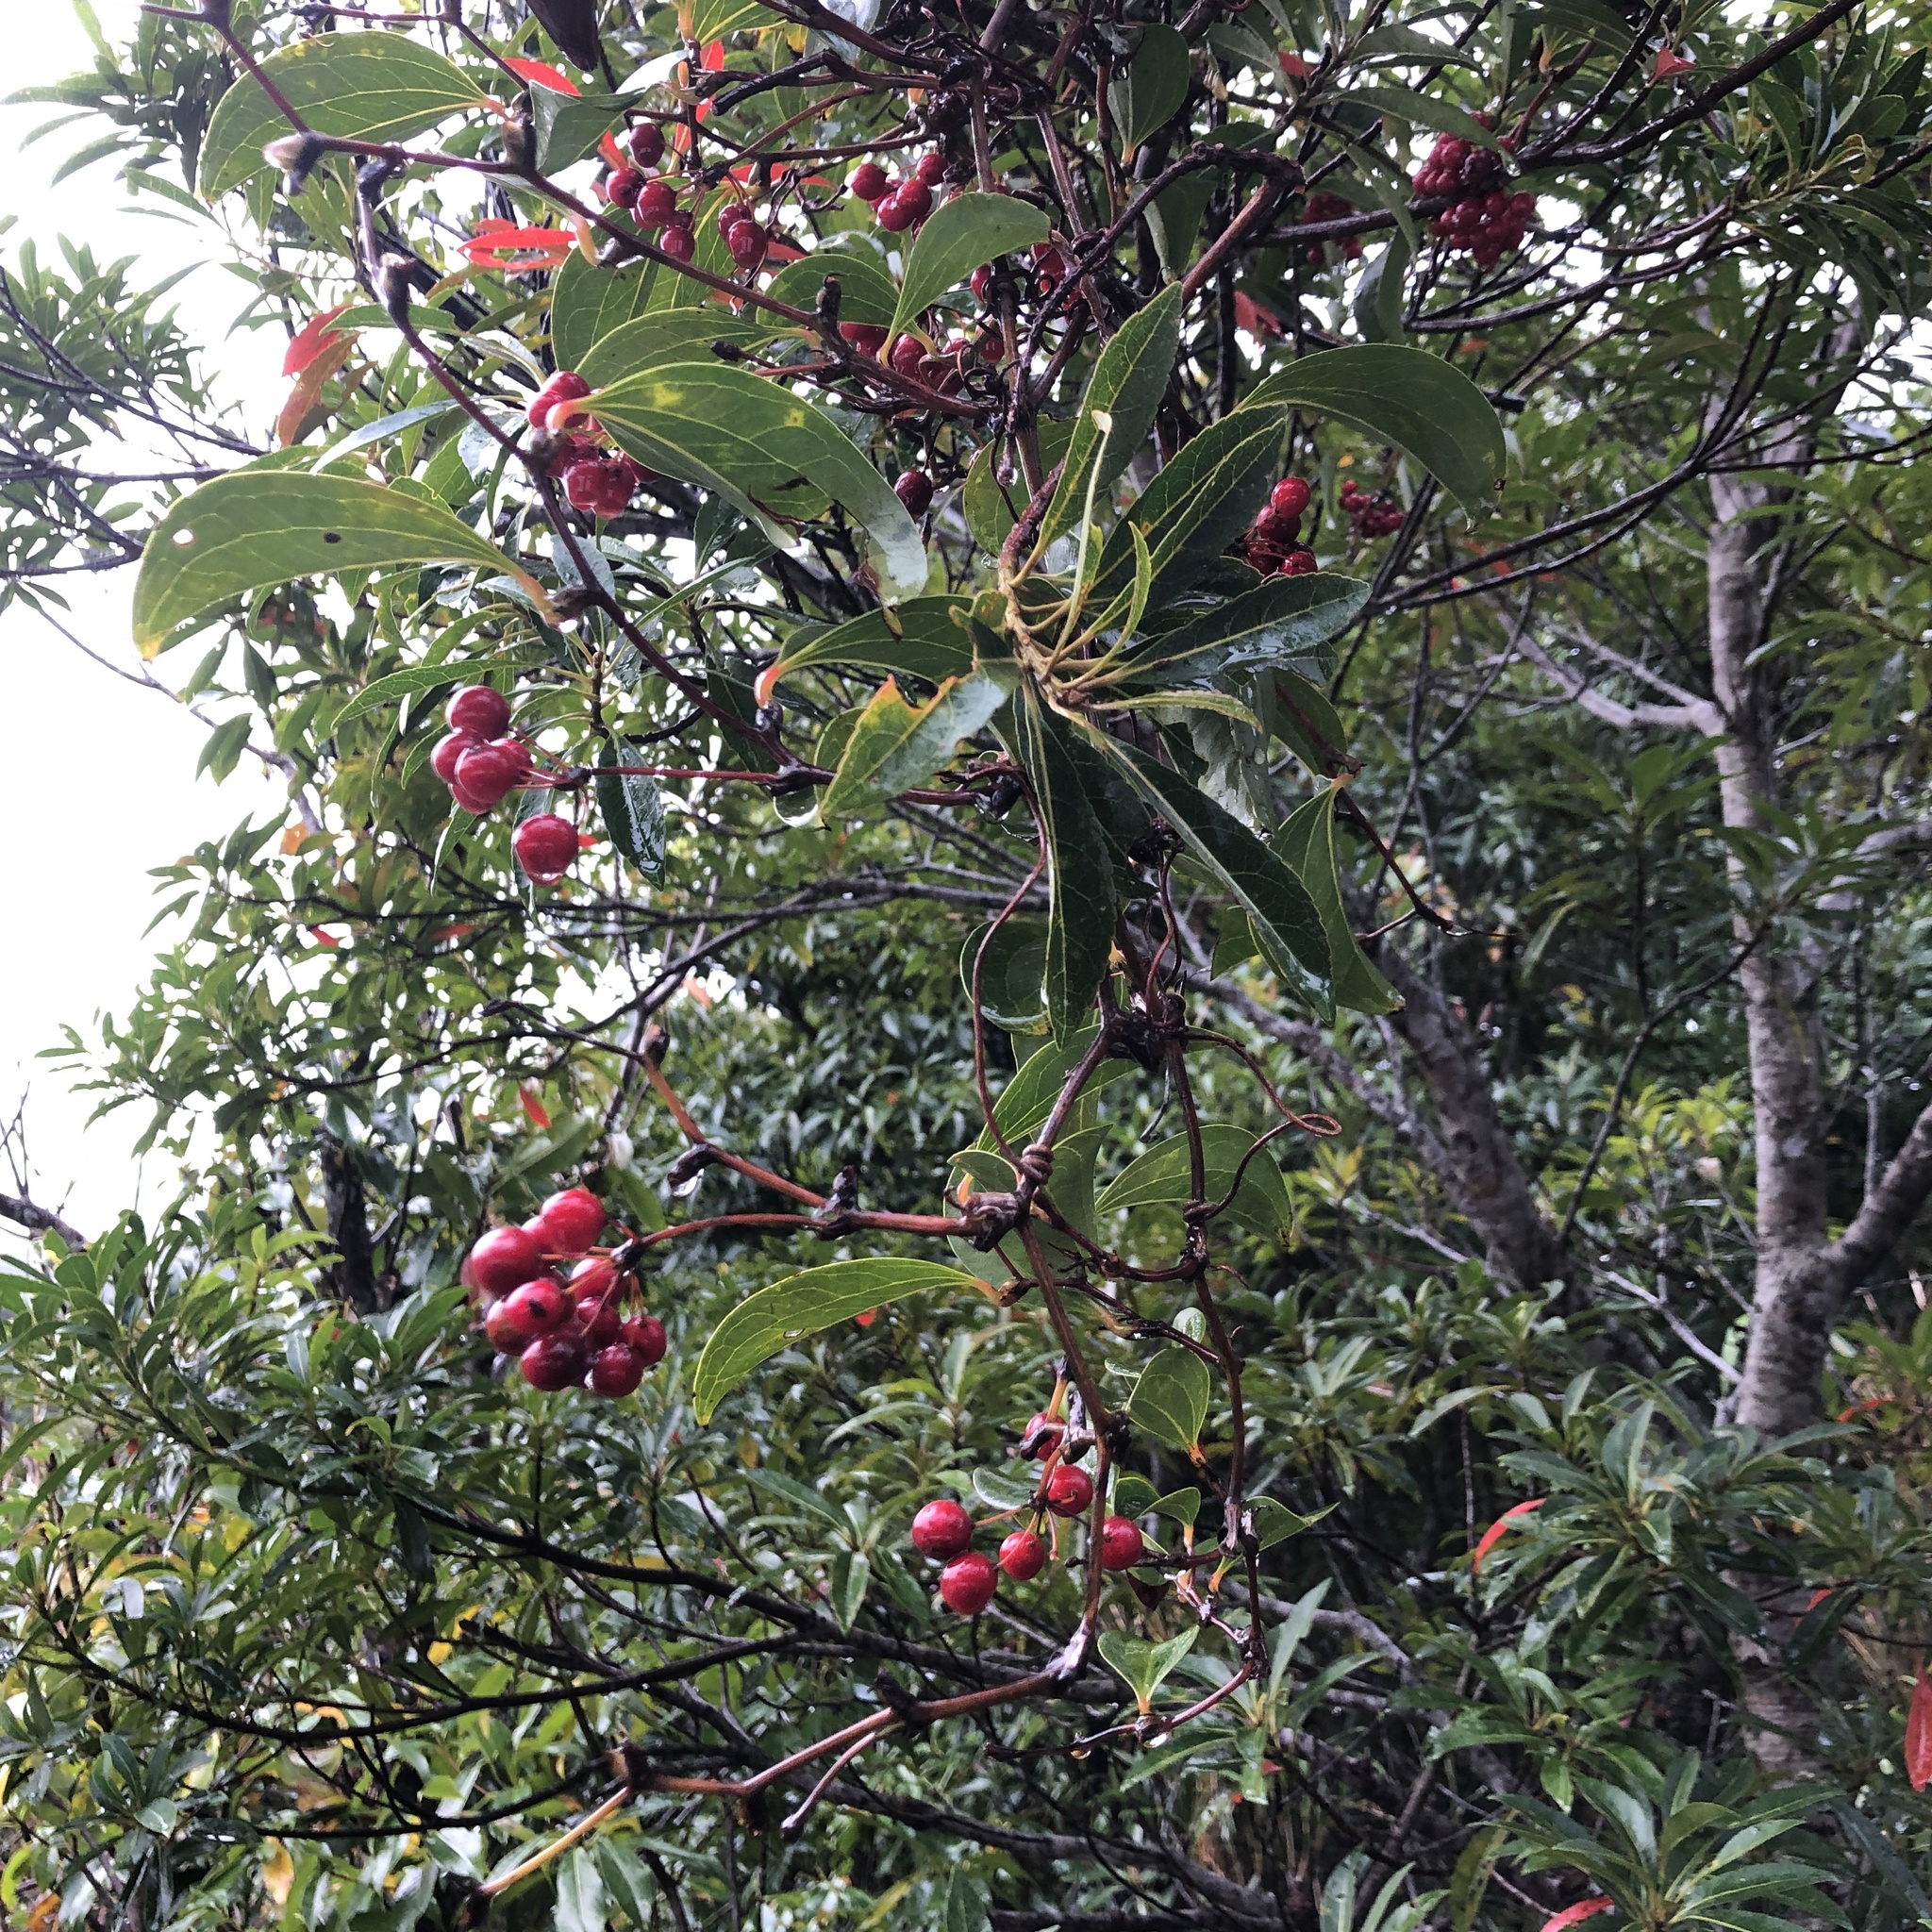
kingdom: Plantae
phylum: Tracheophyta
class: Liliopsida
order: Liliales
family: Smilacaceae
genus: Smilax
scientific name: Smilax china
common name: Chinaroot
